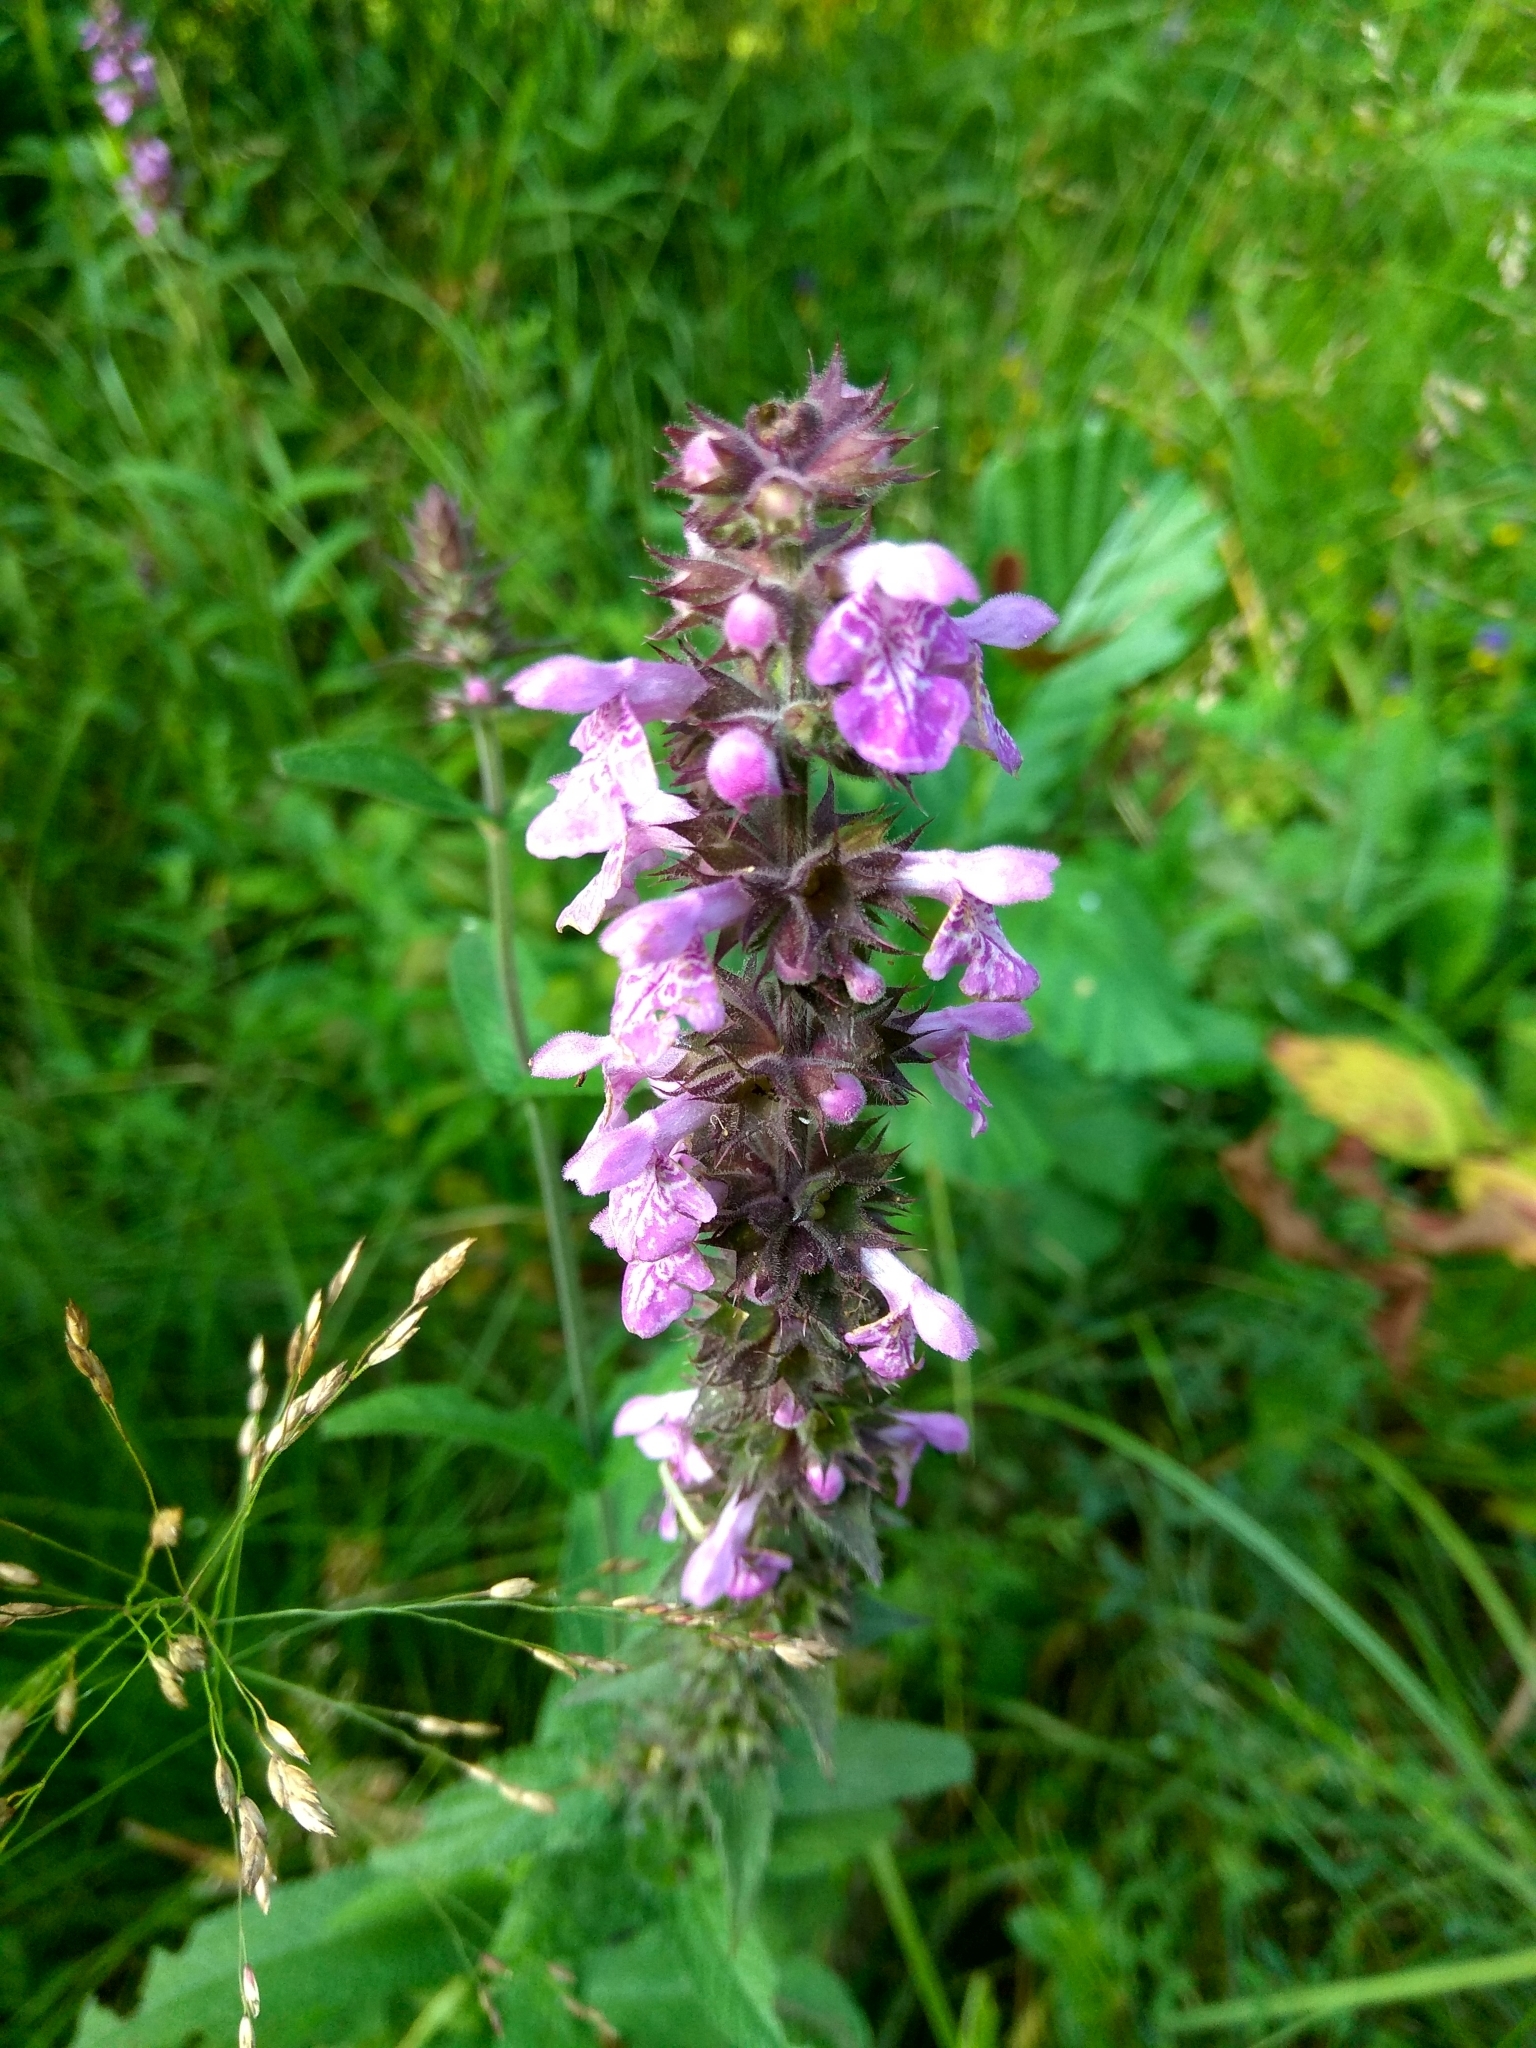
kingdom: Plantae
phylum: Tracheophyta
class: Magnoliopsida
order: Lamiales
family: Lamiaceae
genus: Stachys
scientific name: Stachys palustris
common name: Marsh woundwort
